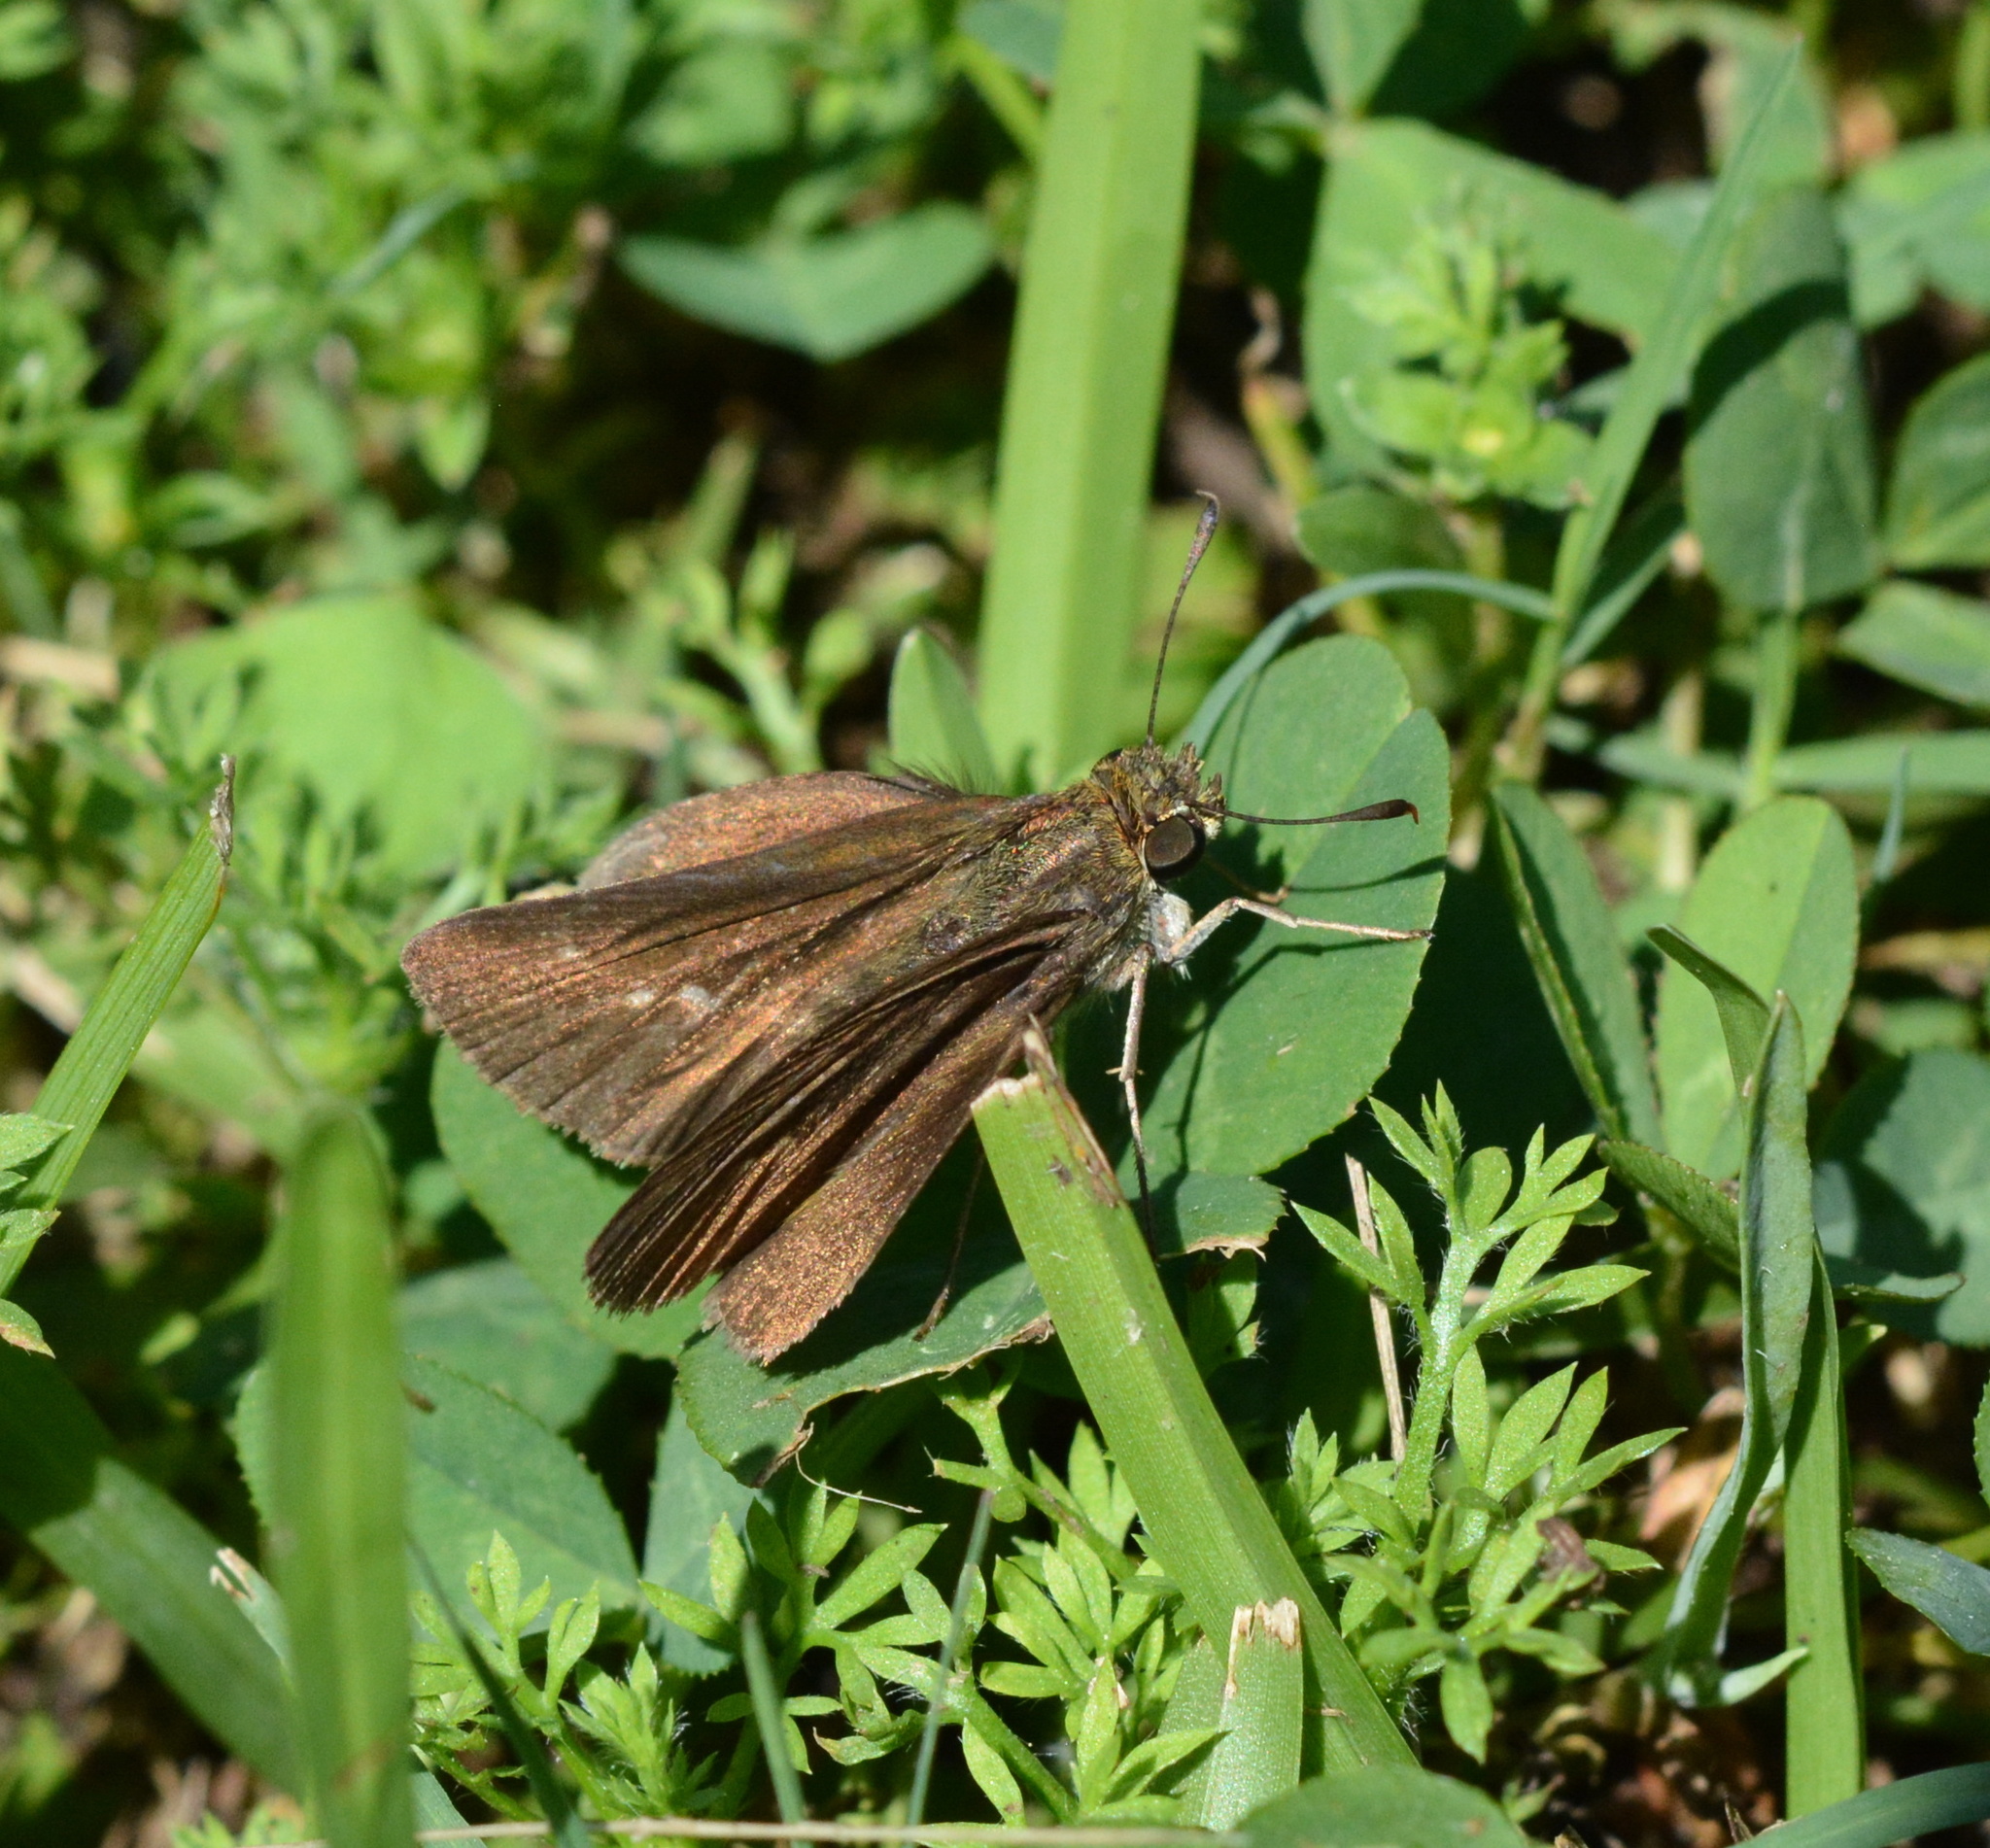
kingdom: Animalia
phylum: Arthropoda
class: Insecta
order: Lepidoptera
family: Hesperiidae
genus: Euphyes
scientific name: Euphyes vestris
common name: Dun skipper
